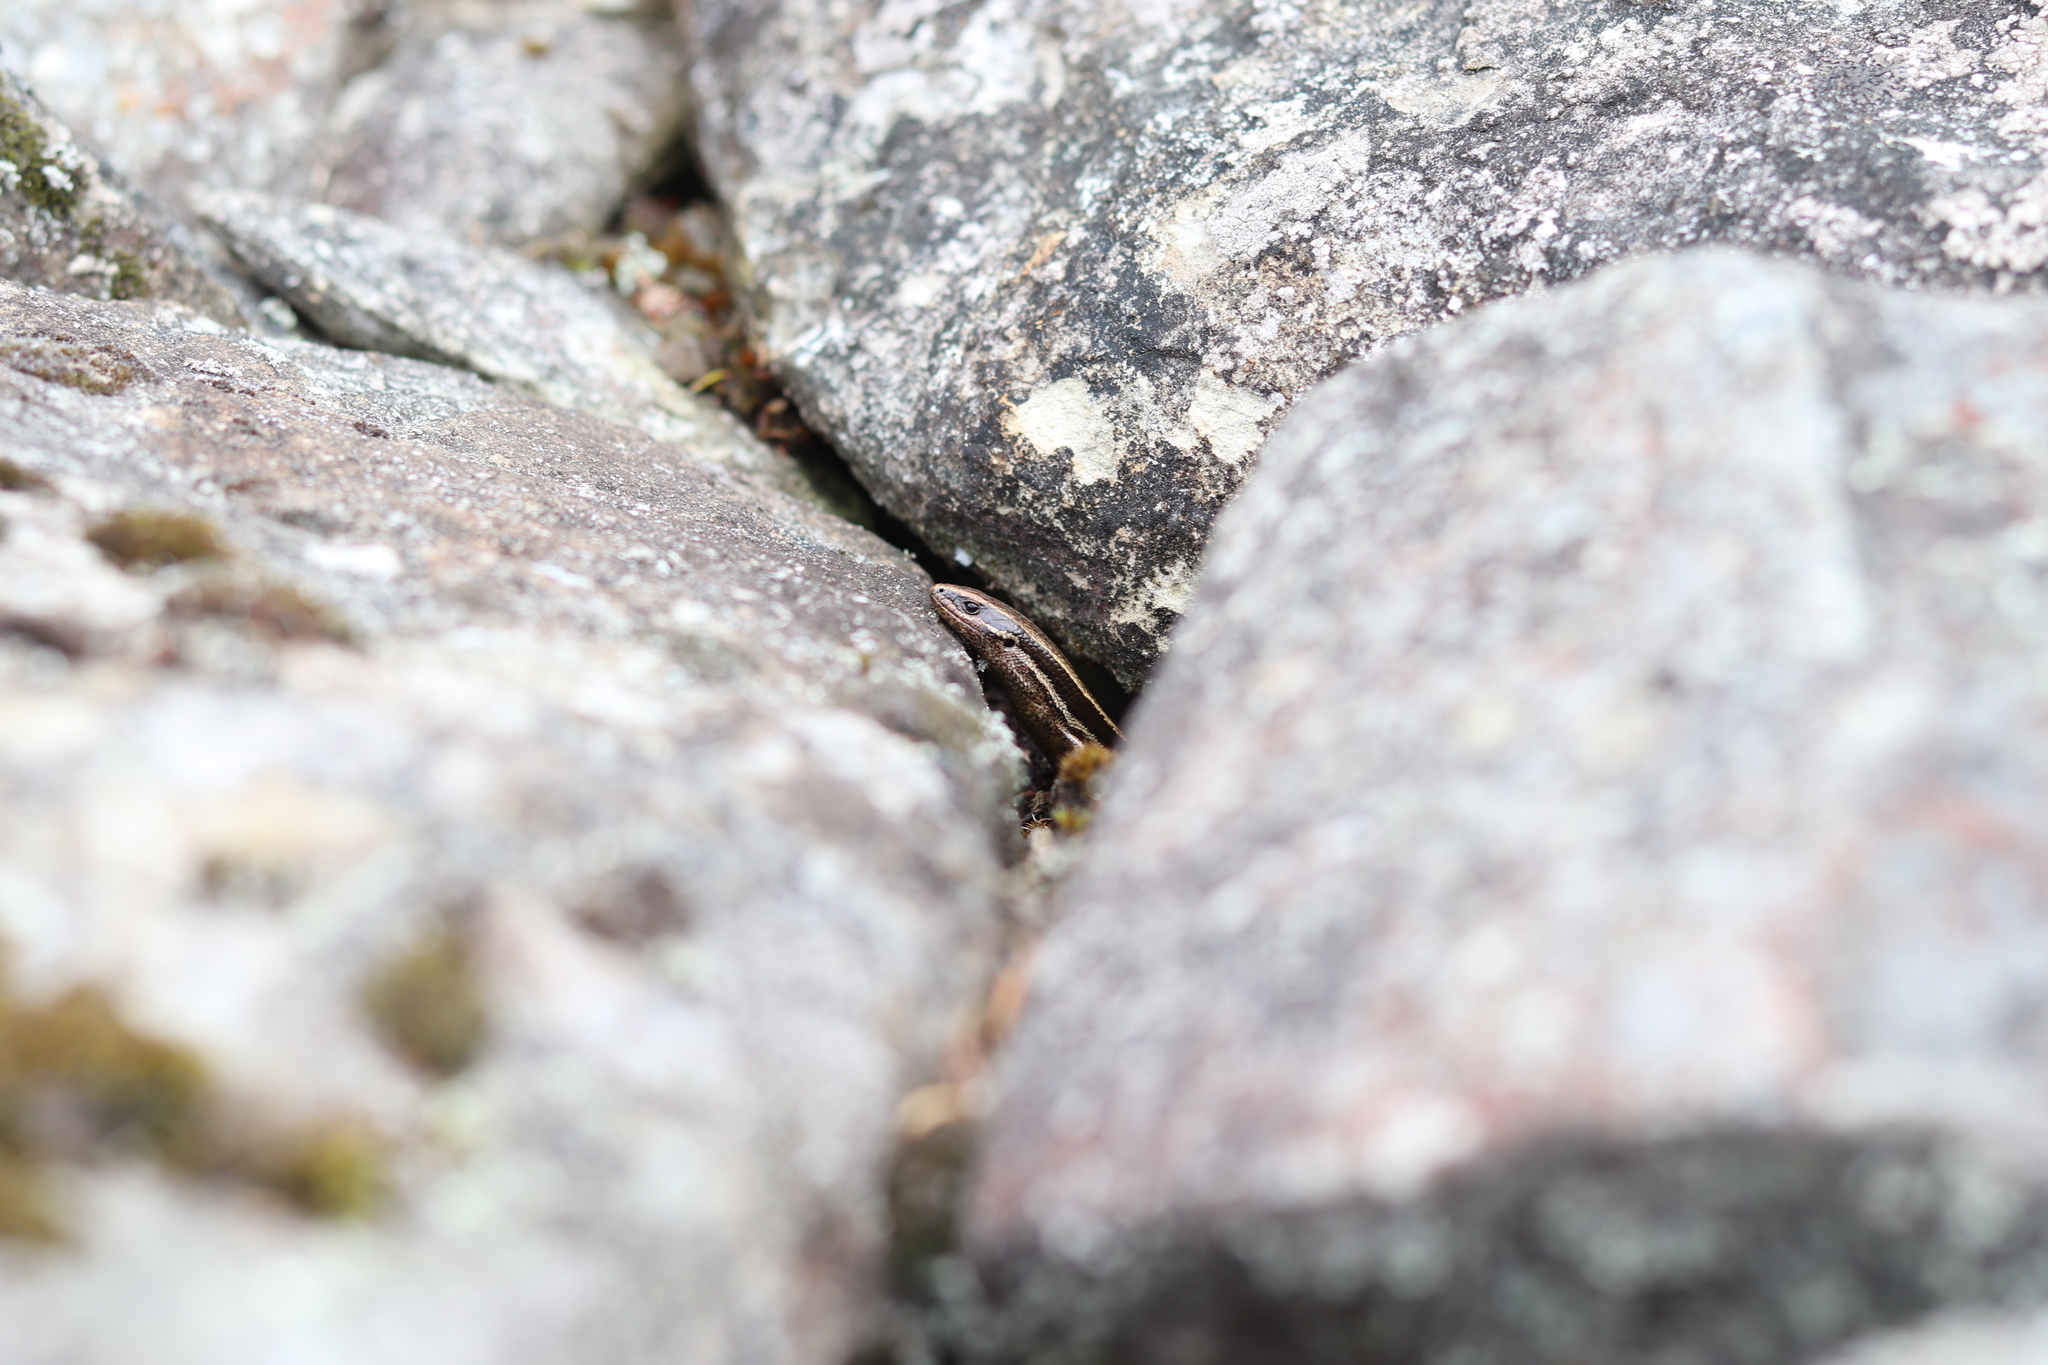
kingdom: Animalia
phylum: Chordata
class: Squamata
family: Scincidae
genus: Oligosoma
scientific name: Oligosoma polychroma
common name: Common new zealand skink
